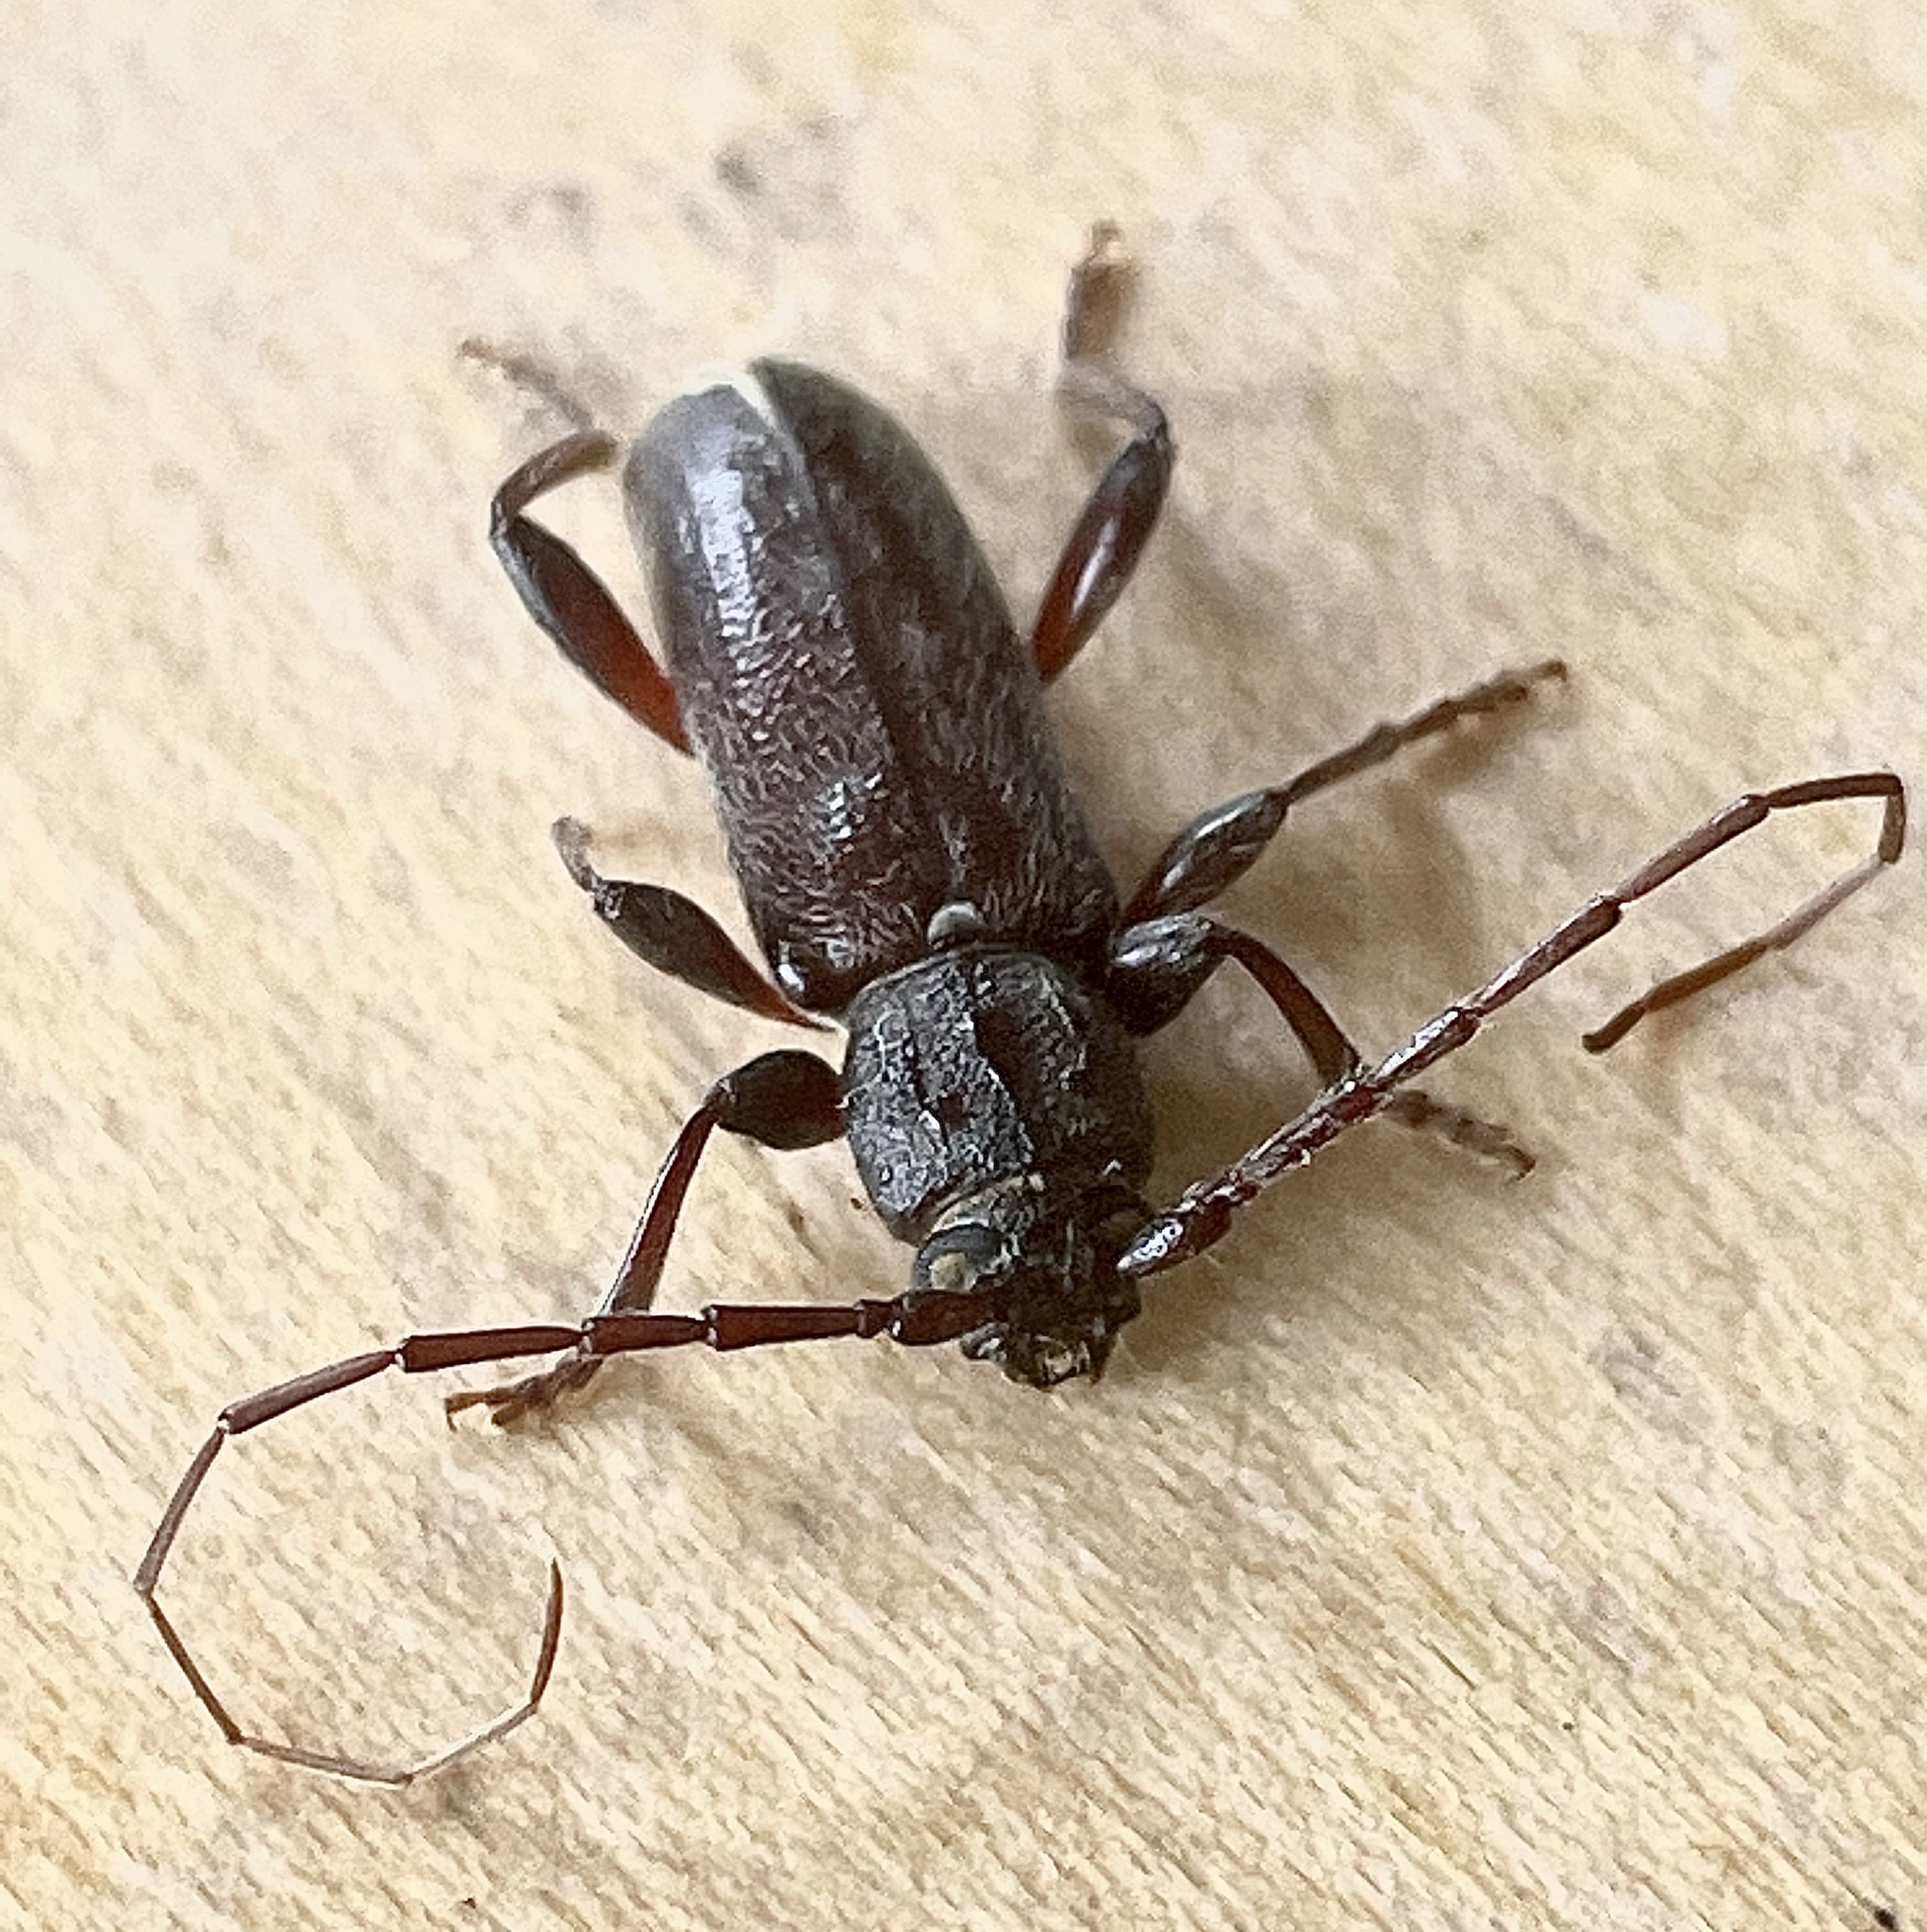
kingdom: Animalia
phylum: Arthropoda
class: Insecta
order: Coleoptera
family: Cerambycidae
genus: Liogramma
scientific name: Liogramma zelandica
